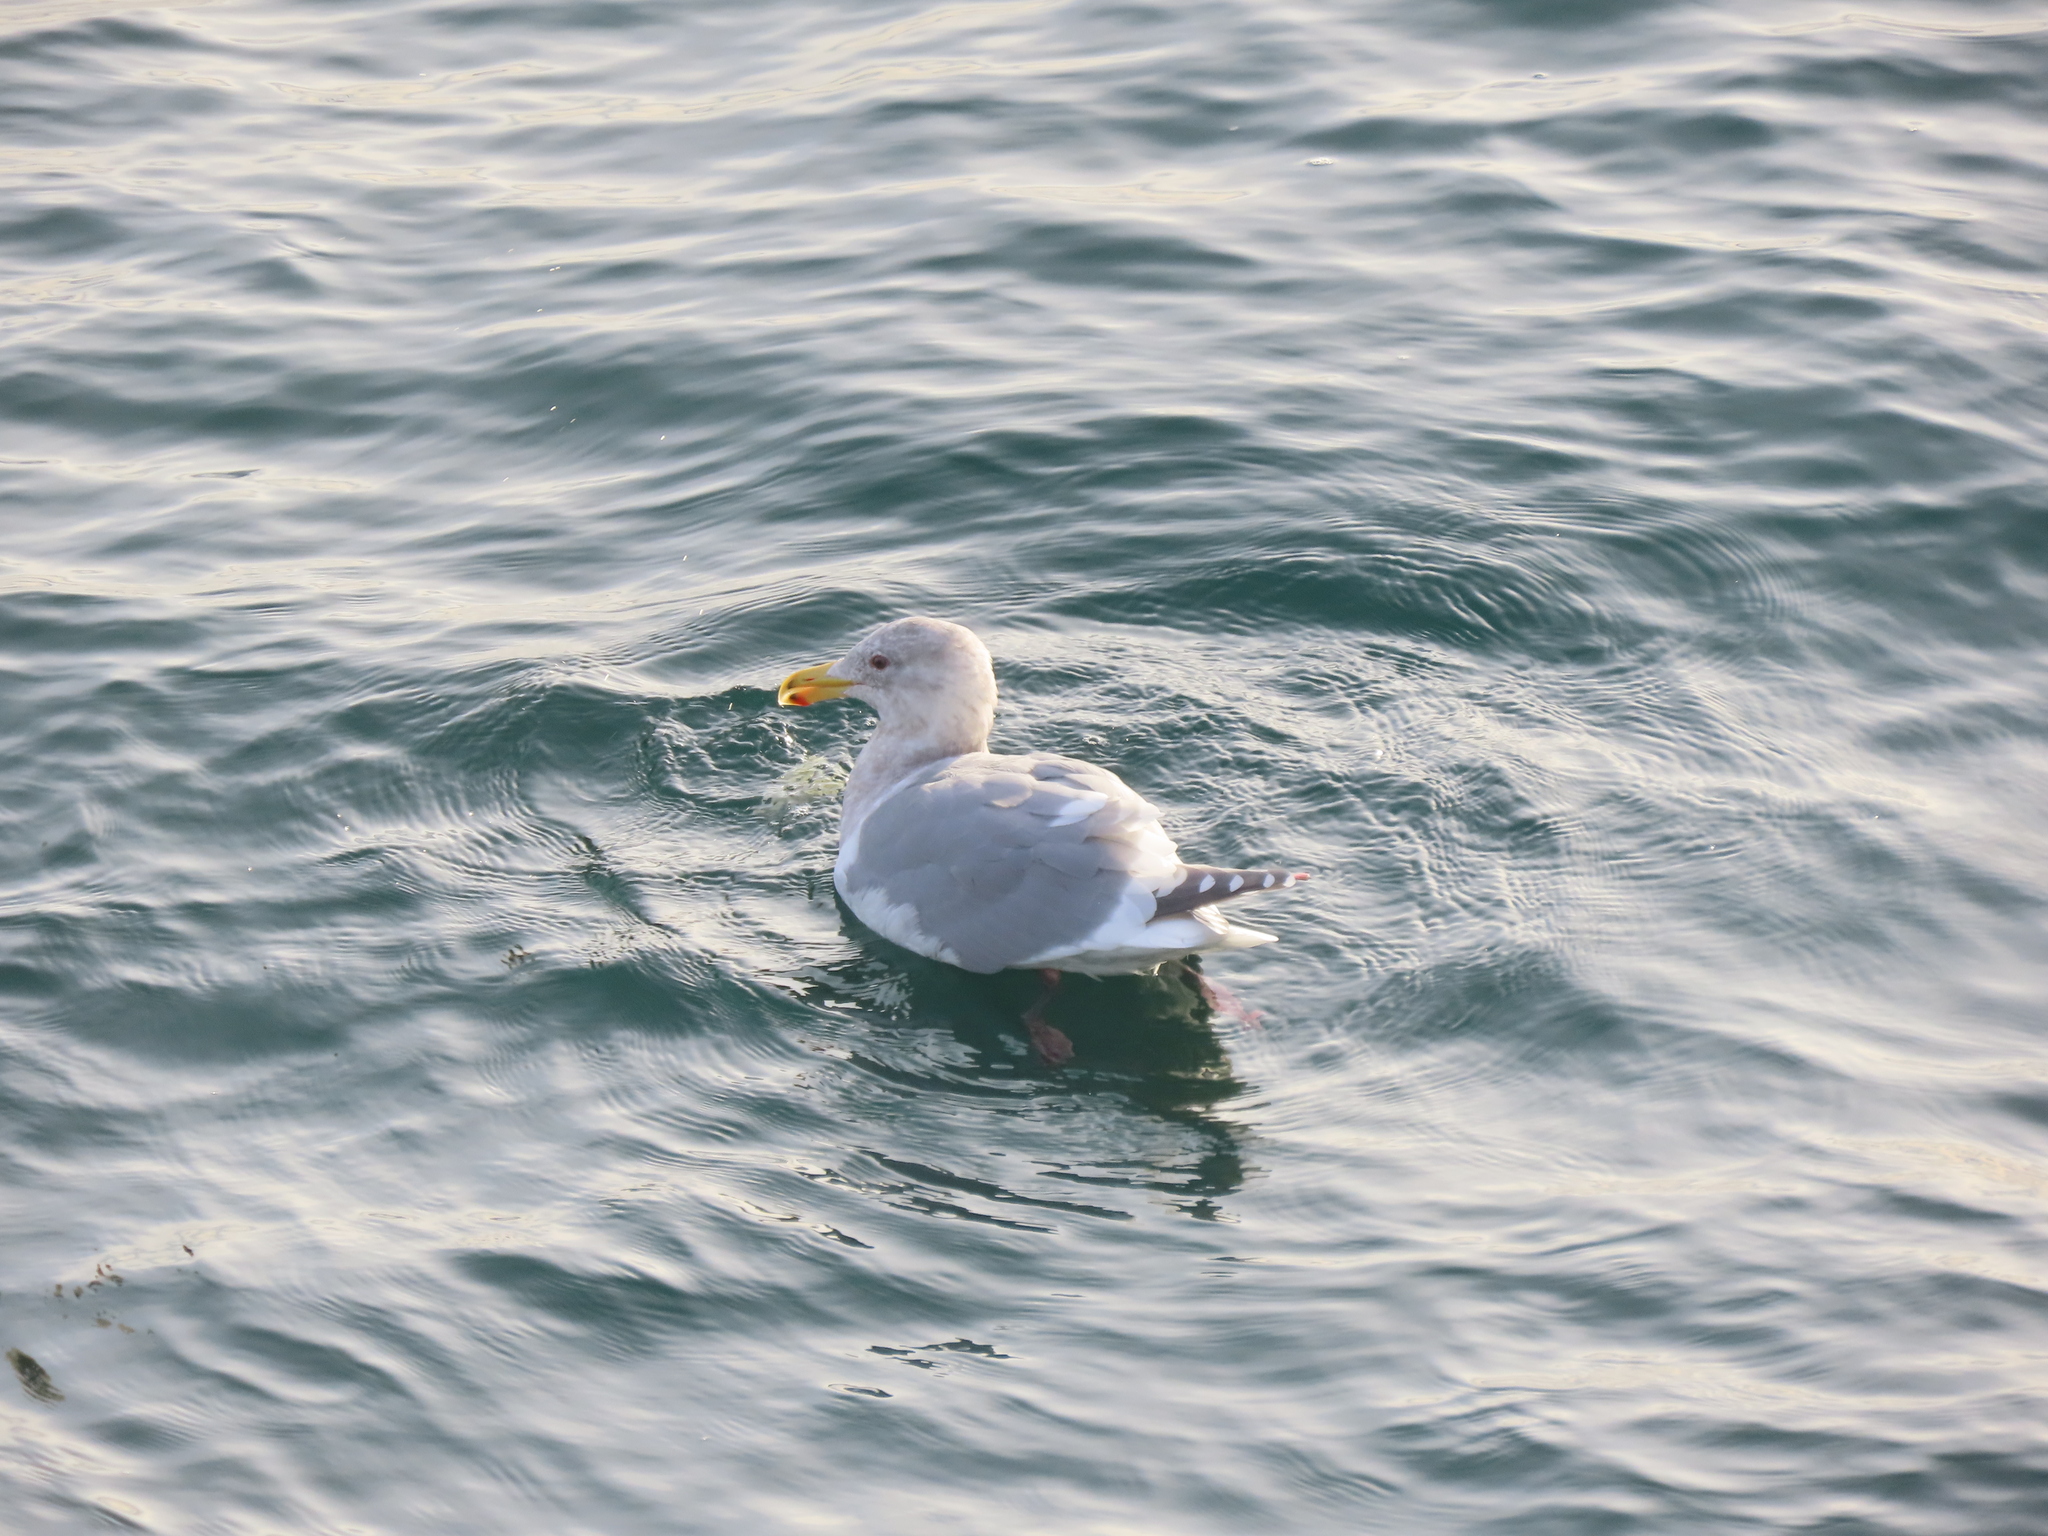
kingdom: Animalia
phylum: Chordata
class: Aves
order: Charadriiformes
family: Laridae
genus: Larus
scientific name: Larus
